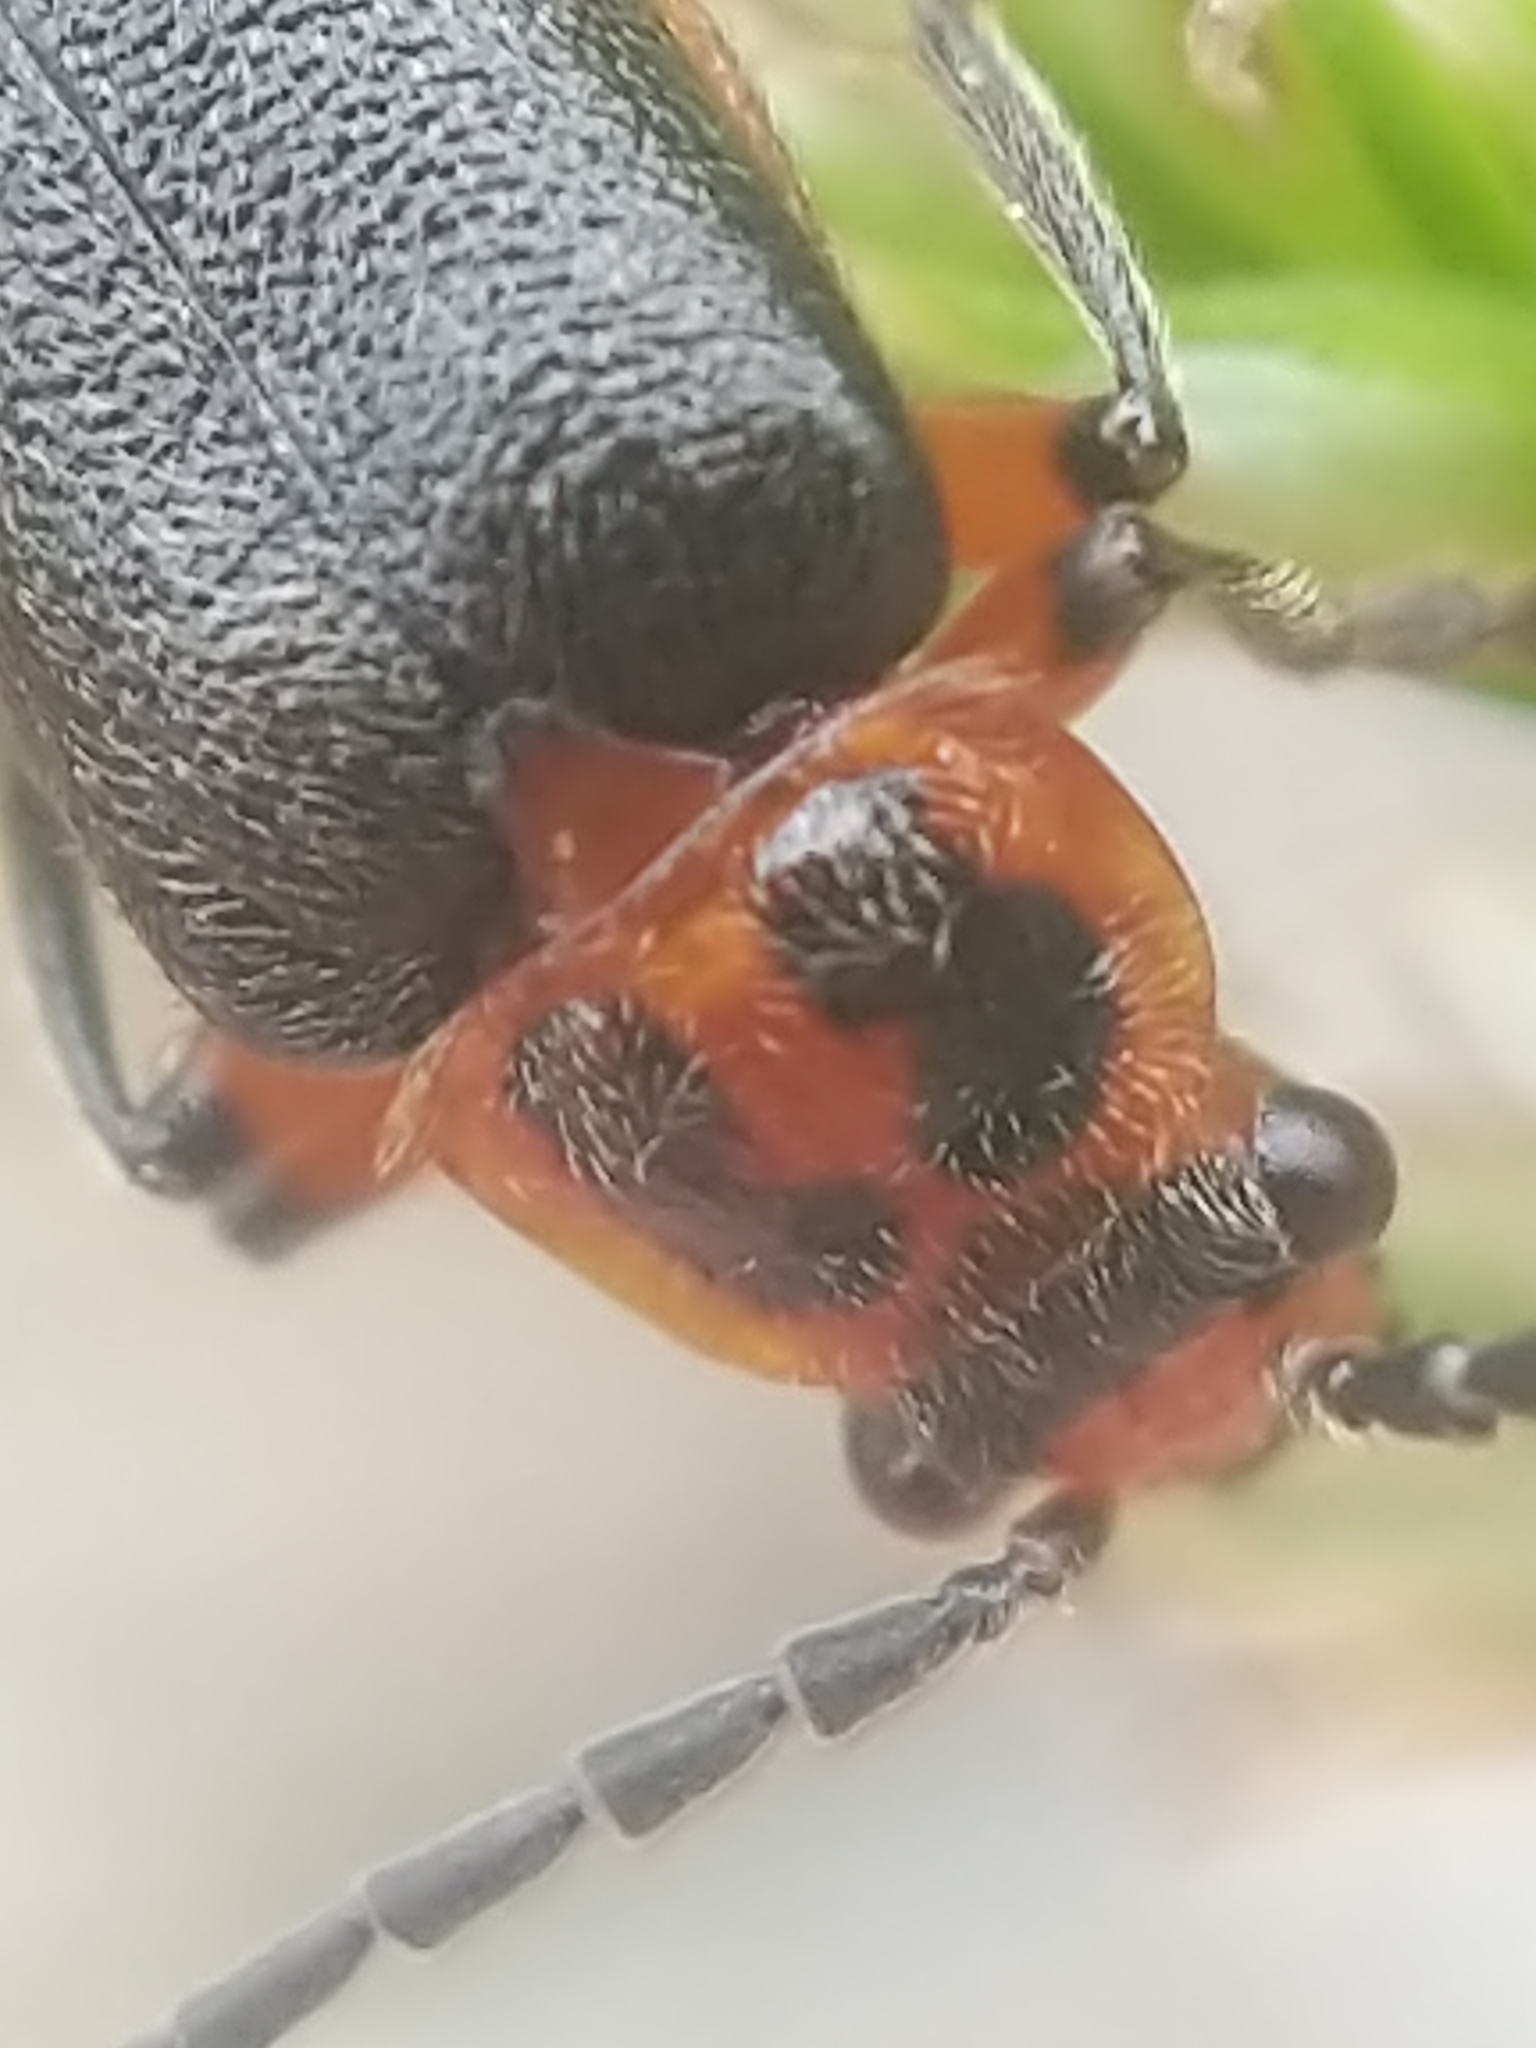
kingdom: Animalia
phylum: Arthropoda
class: Insecta
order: Coleoptera
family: Cantharidae
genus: Atalantycha
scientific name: Atalantycha bilineata
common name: Two-lined leatherwing
